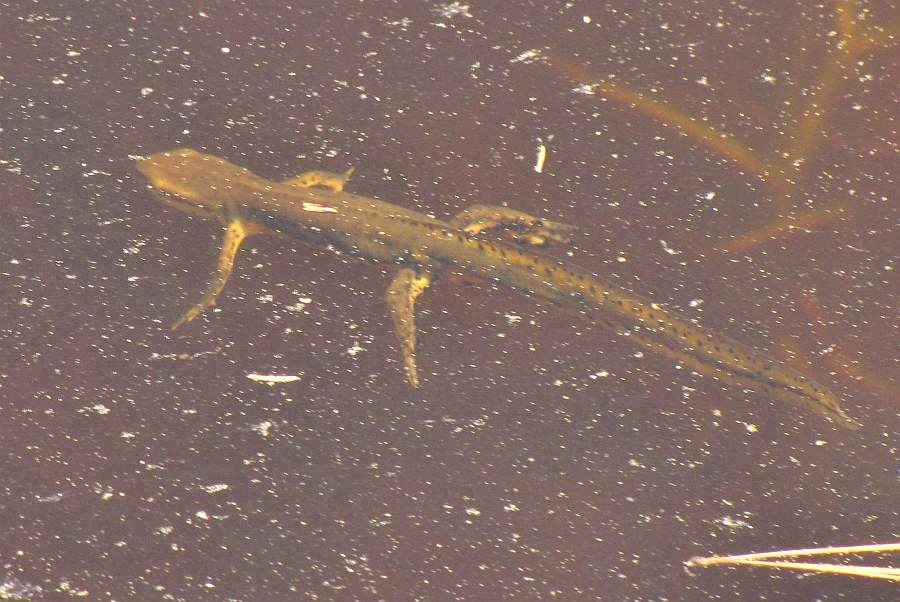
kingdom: Animalia
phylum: Chordata
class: Amphibia
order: Caudata
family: Salamandridae
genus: Notophthalmus
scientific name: Notophthalmus viridescens
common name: Eastern newt
